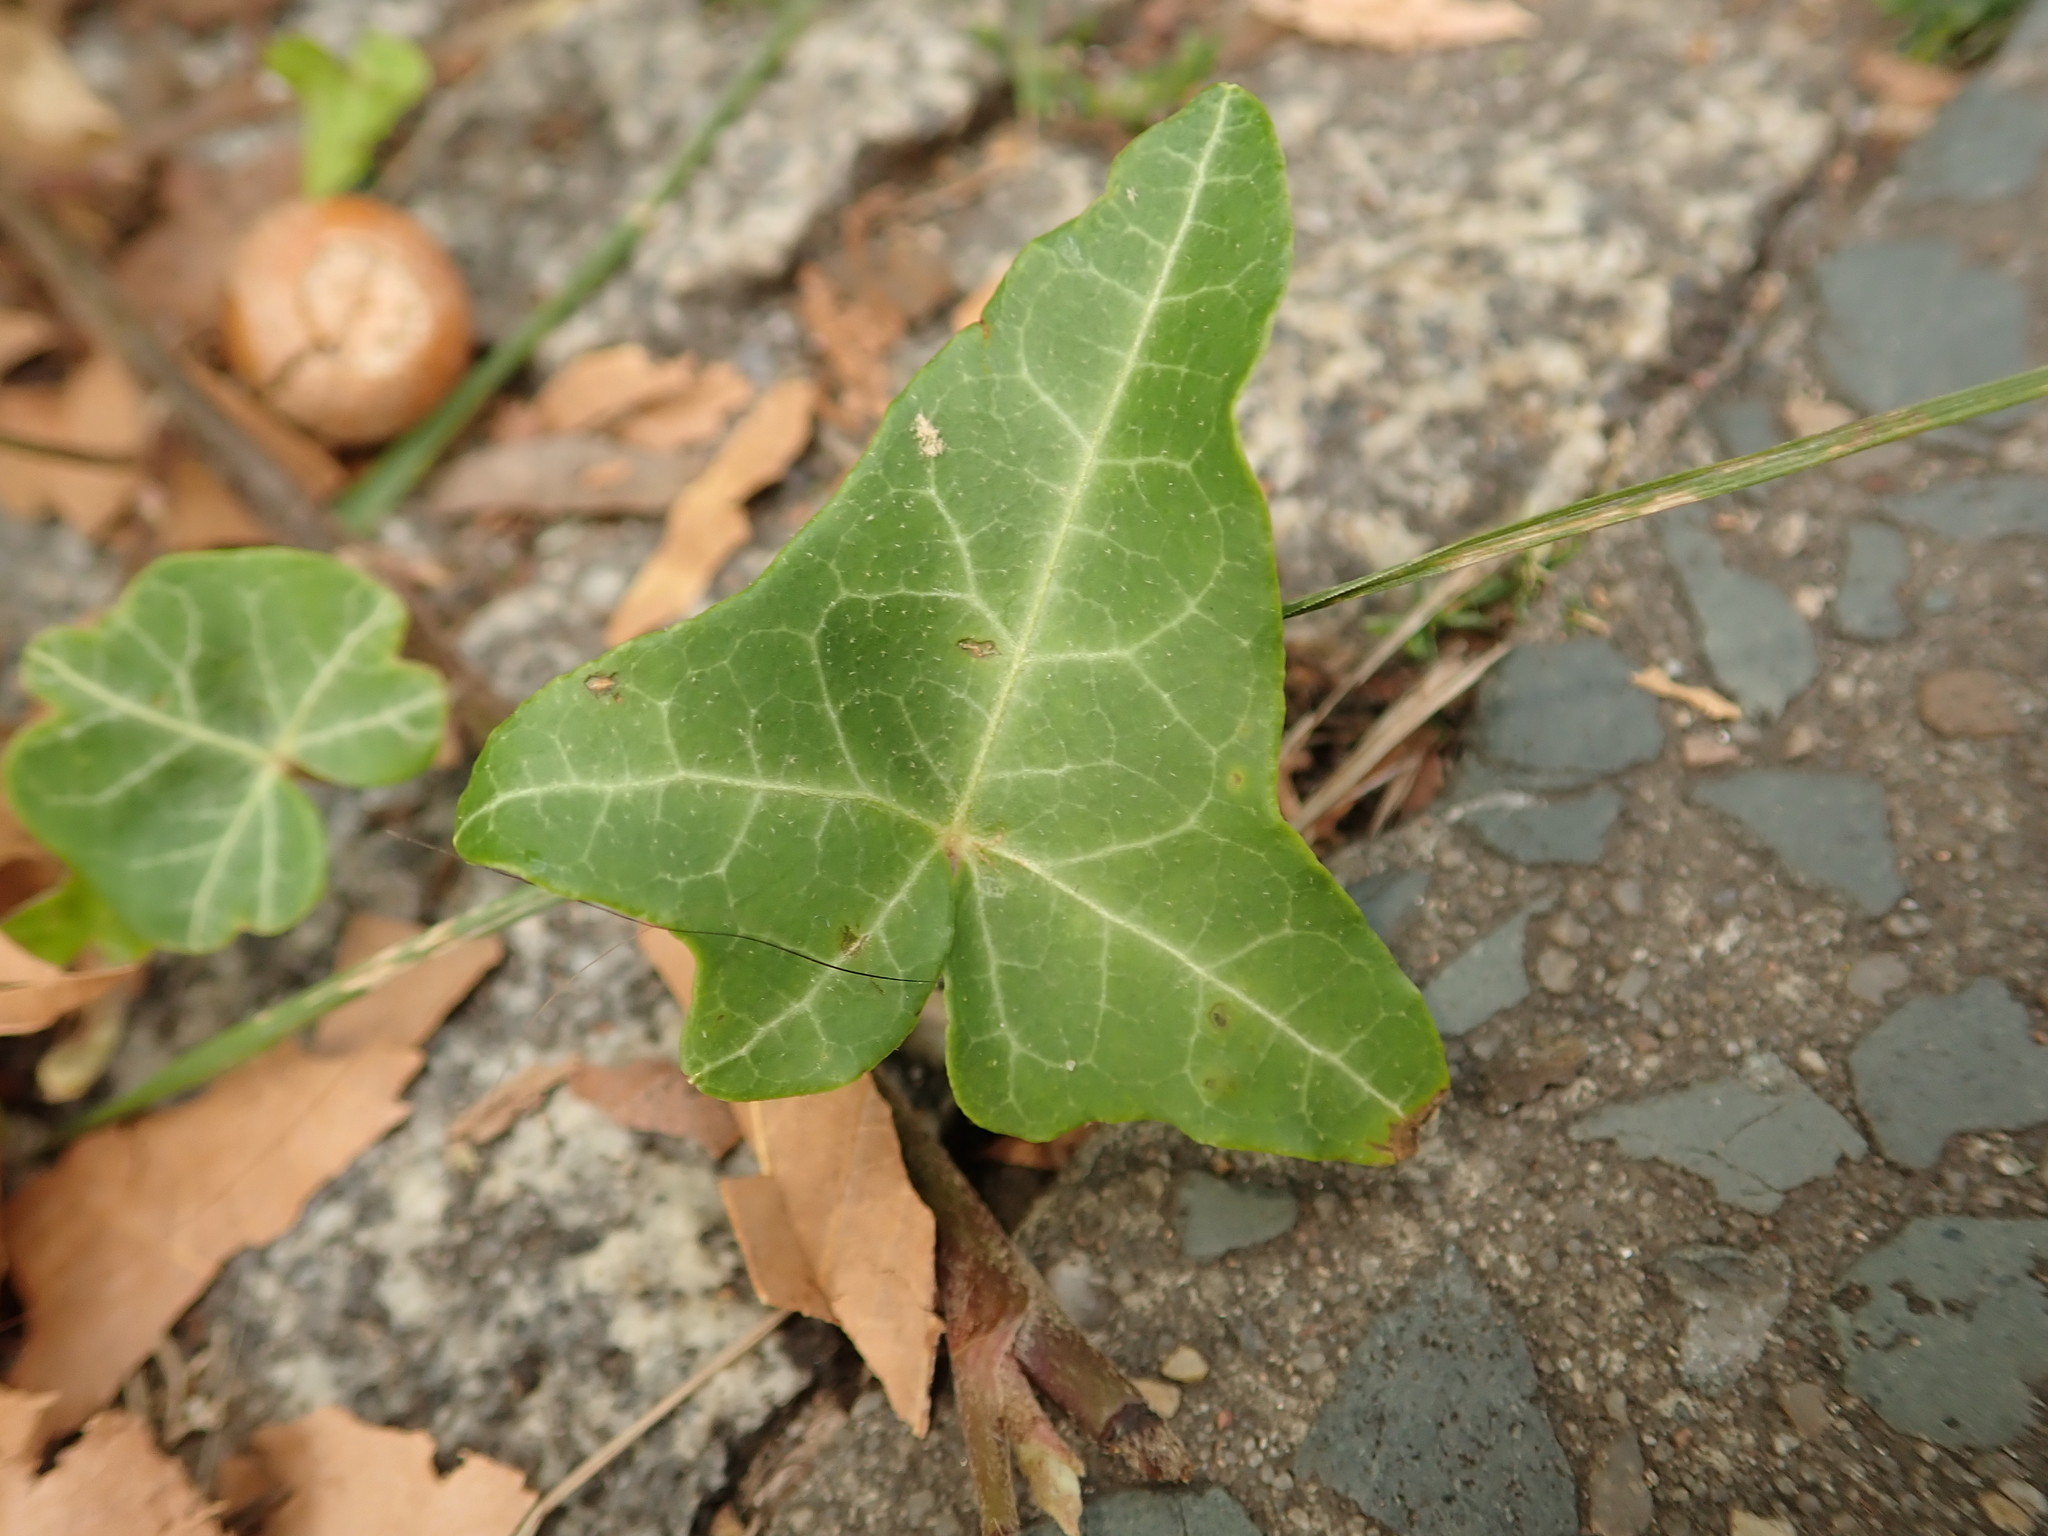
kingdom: Plantae
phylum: Tracheophyta
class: Magnoliopsida
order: Apiales
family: Araliaceae
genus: Hedera
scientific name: Hedera helix
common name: Ivy
